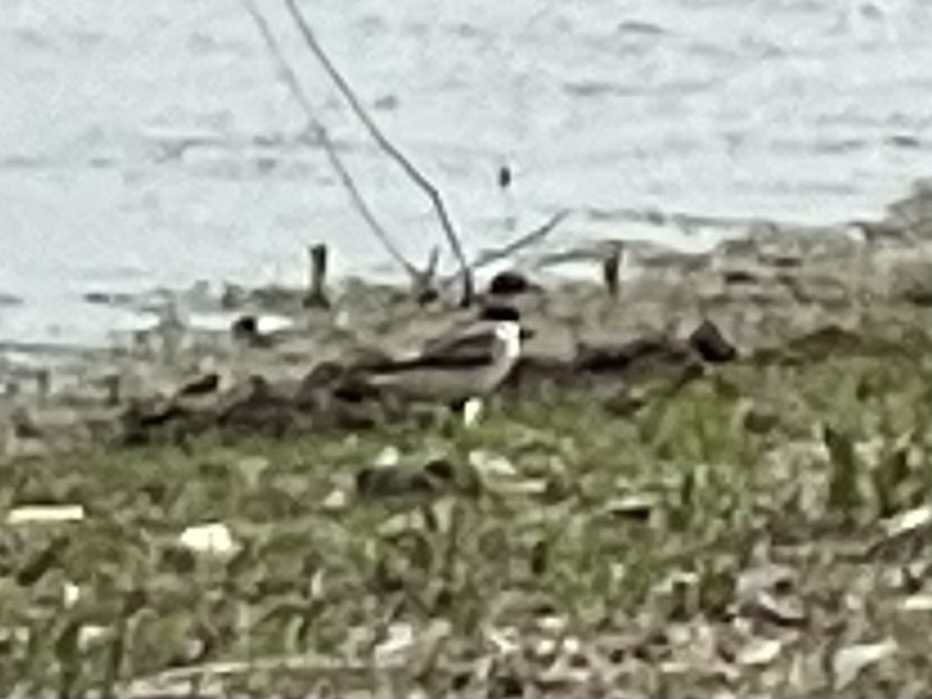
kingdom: Animalia
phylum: Chordata
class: Aves
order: Charadriiformes
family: Charadriidae
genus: Charadrius
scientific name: Charadrius vociferus
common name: Killdeer
